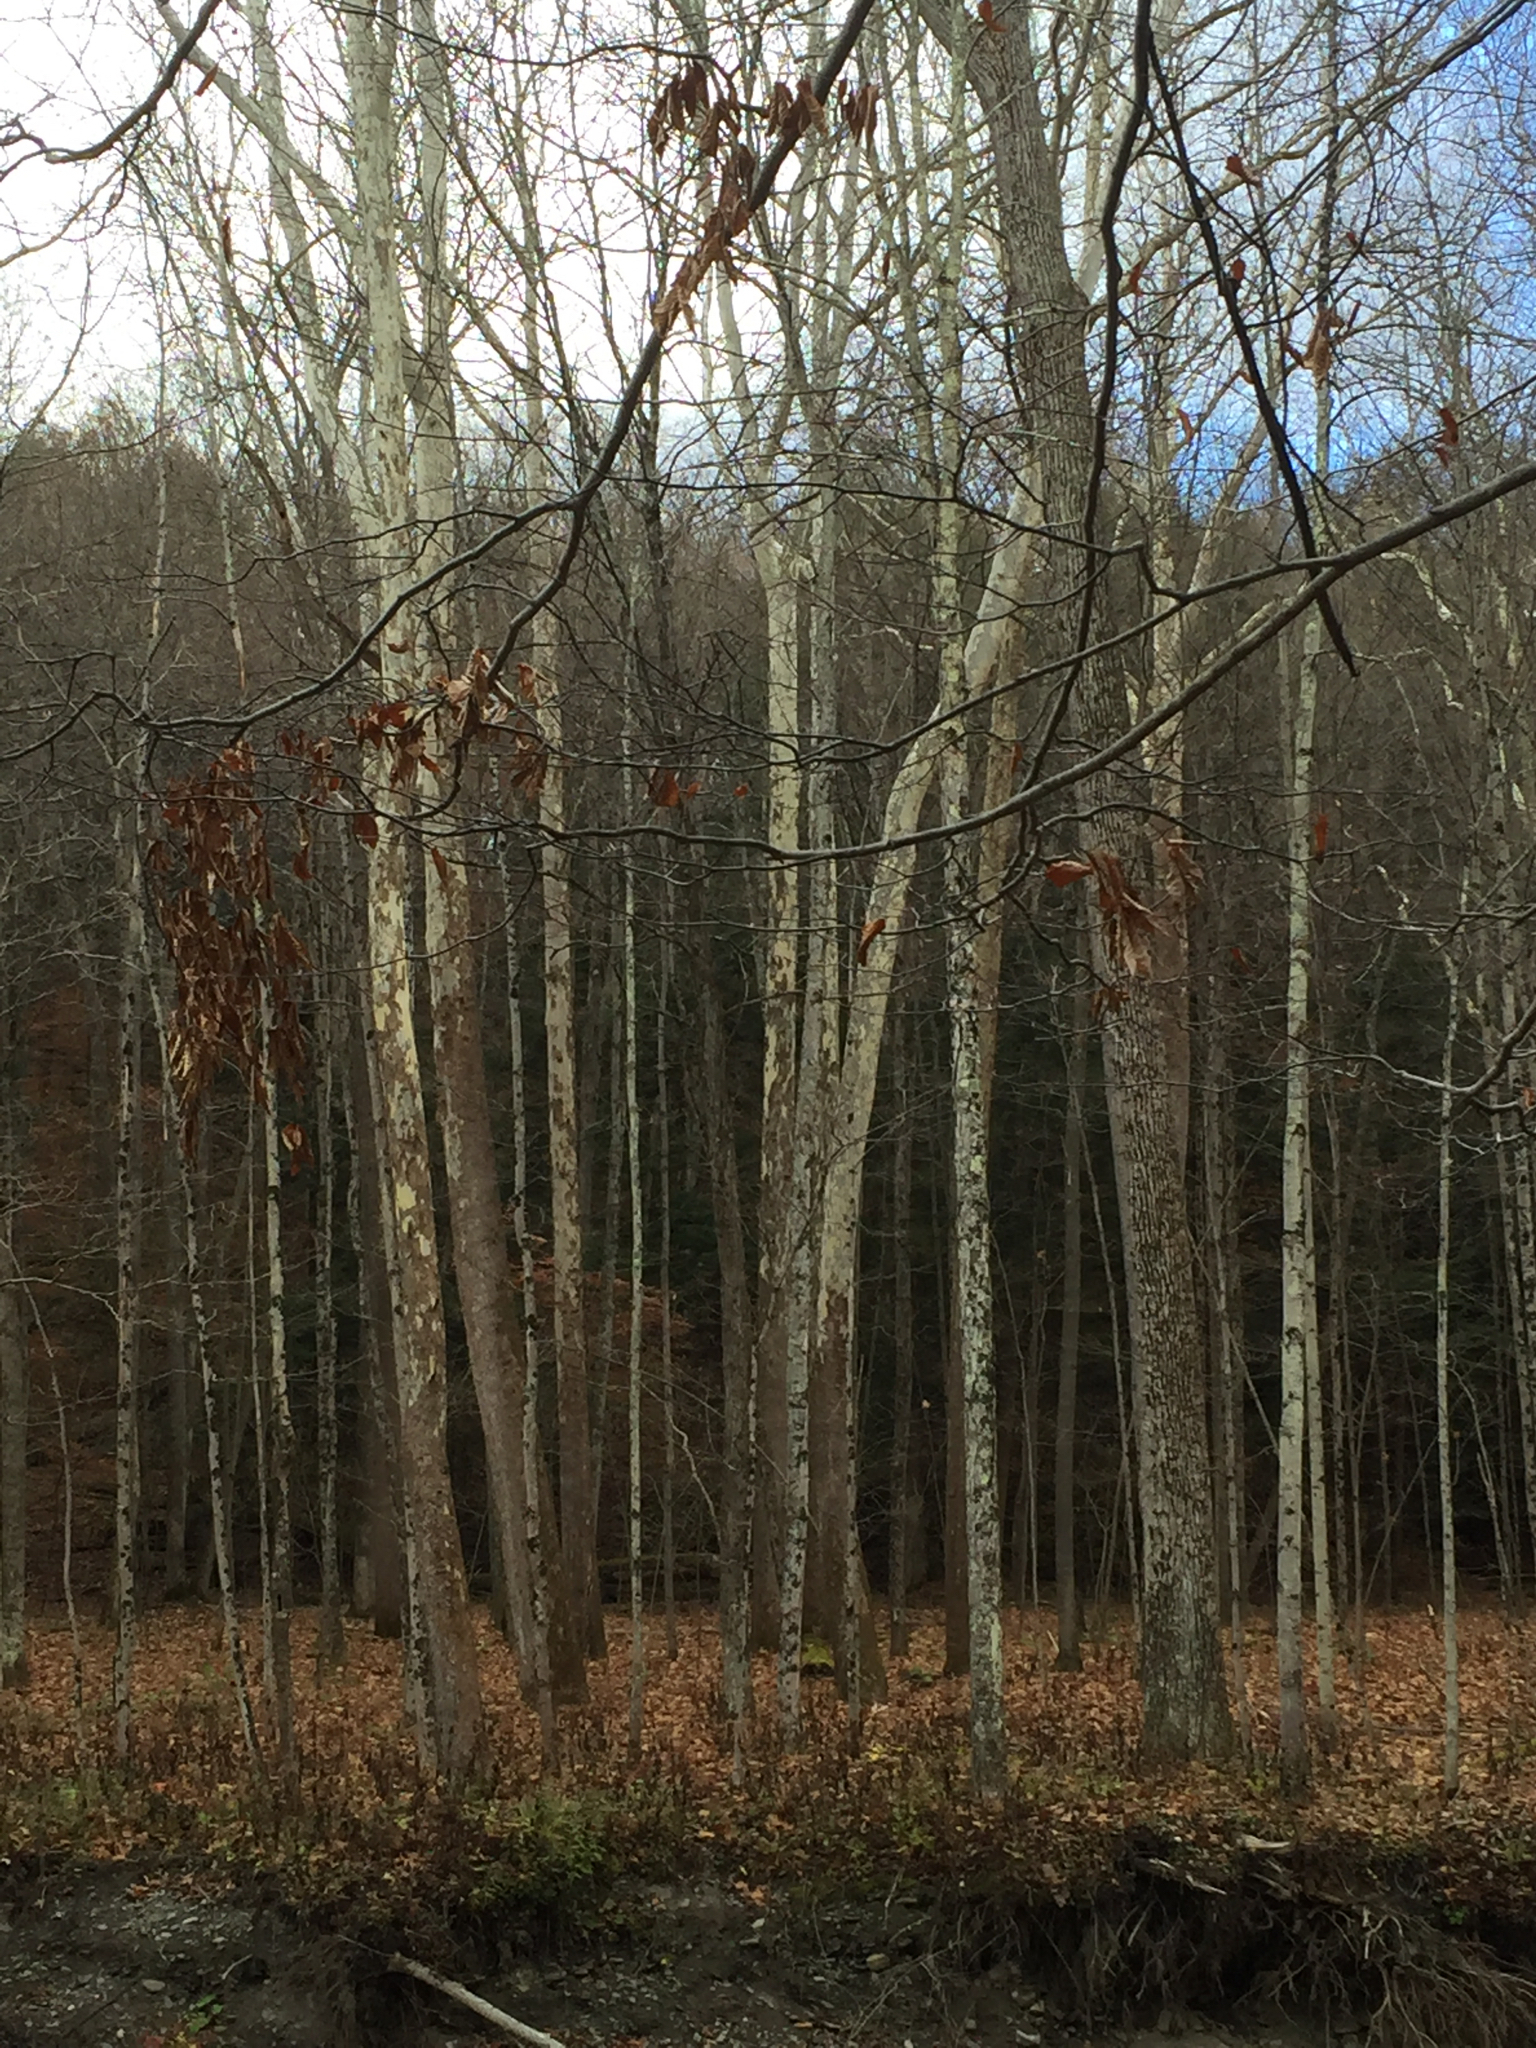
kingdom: Plantae
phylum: Tracheophyta
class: Magnoliopsida
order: Proteales
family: Platanaceae
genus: Platanus
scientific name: Platanus occidentalis
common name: American sycamore
